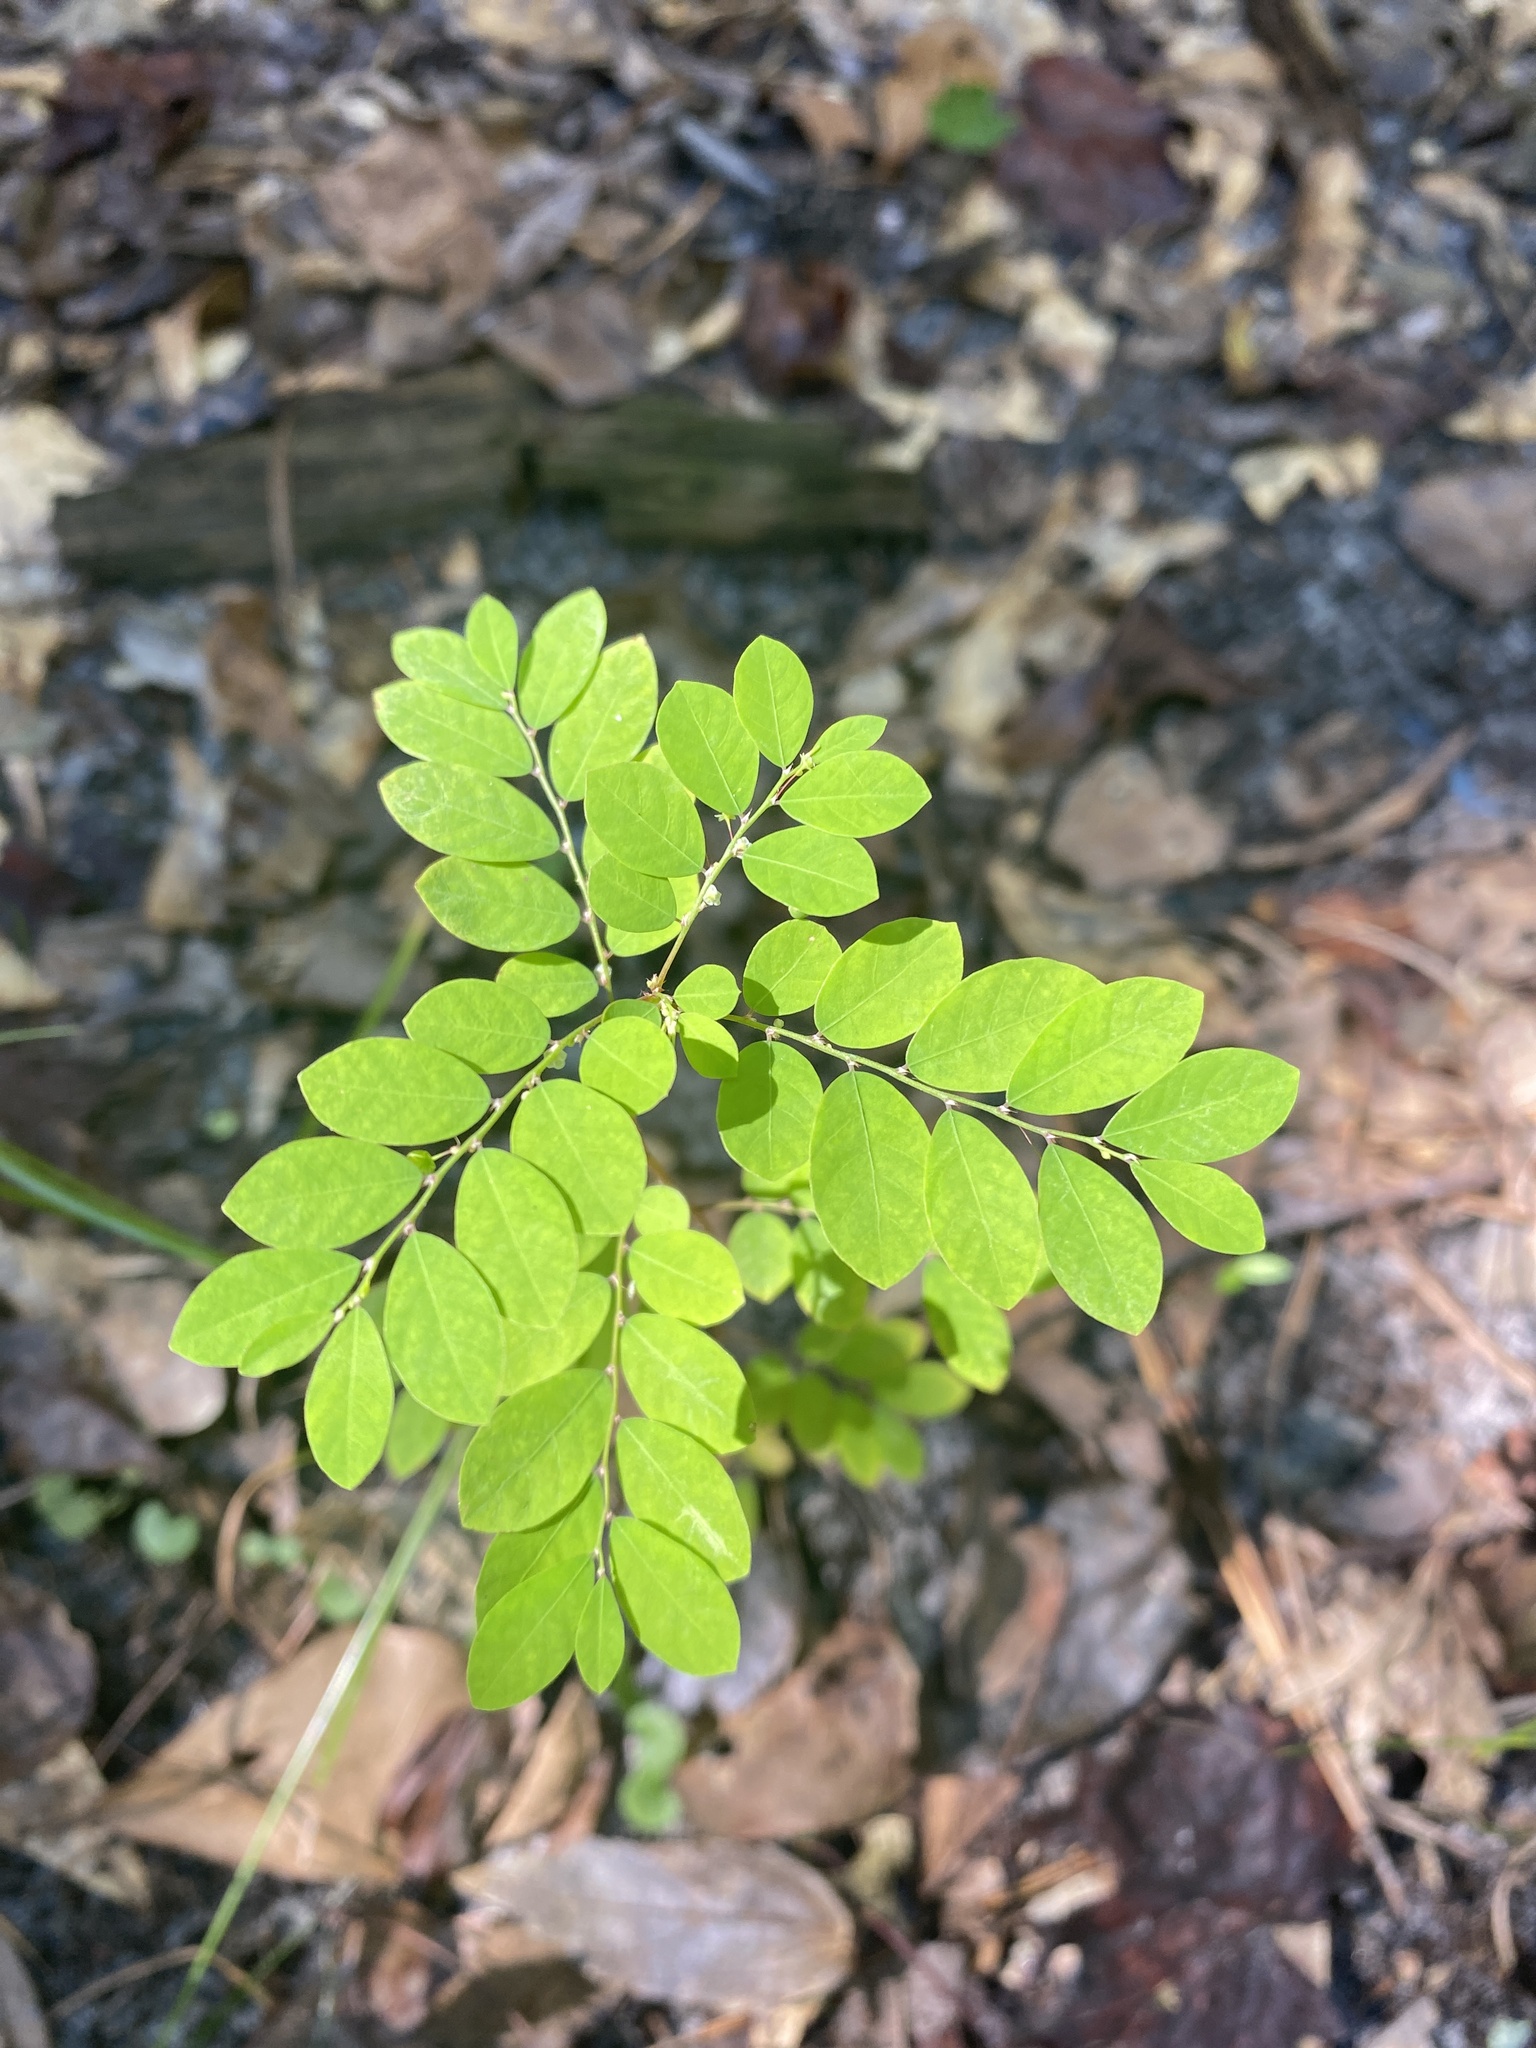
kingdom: Plantae
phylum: Tracheophyta
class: Magnoliopsida
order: Malpighiales
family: Phyllanthaceae
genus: Phyllanthus
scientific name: Phyllanthus tenellus
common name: Mascarene island leaf-flower
